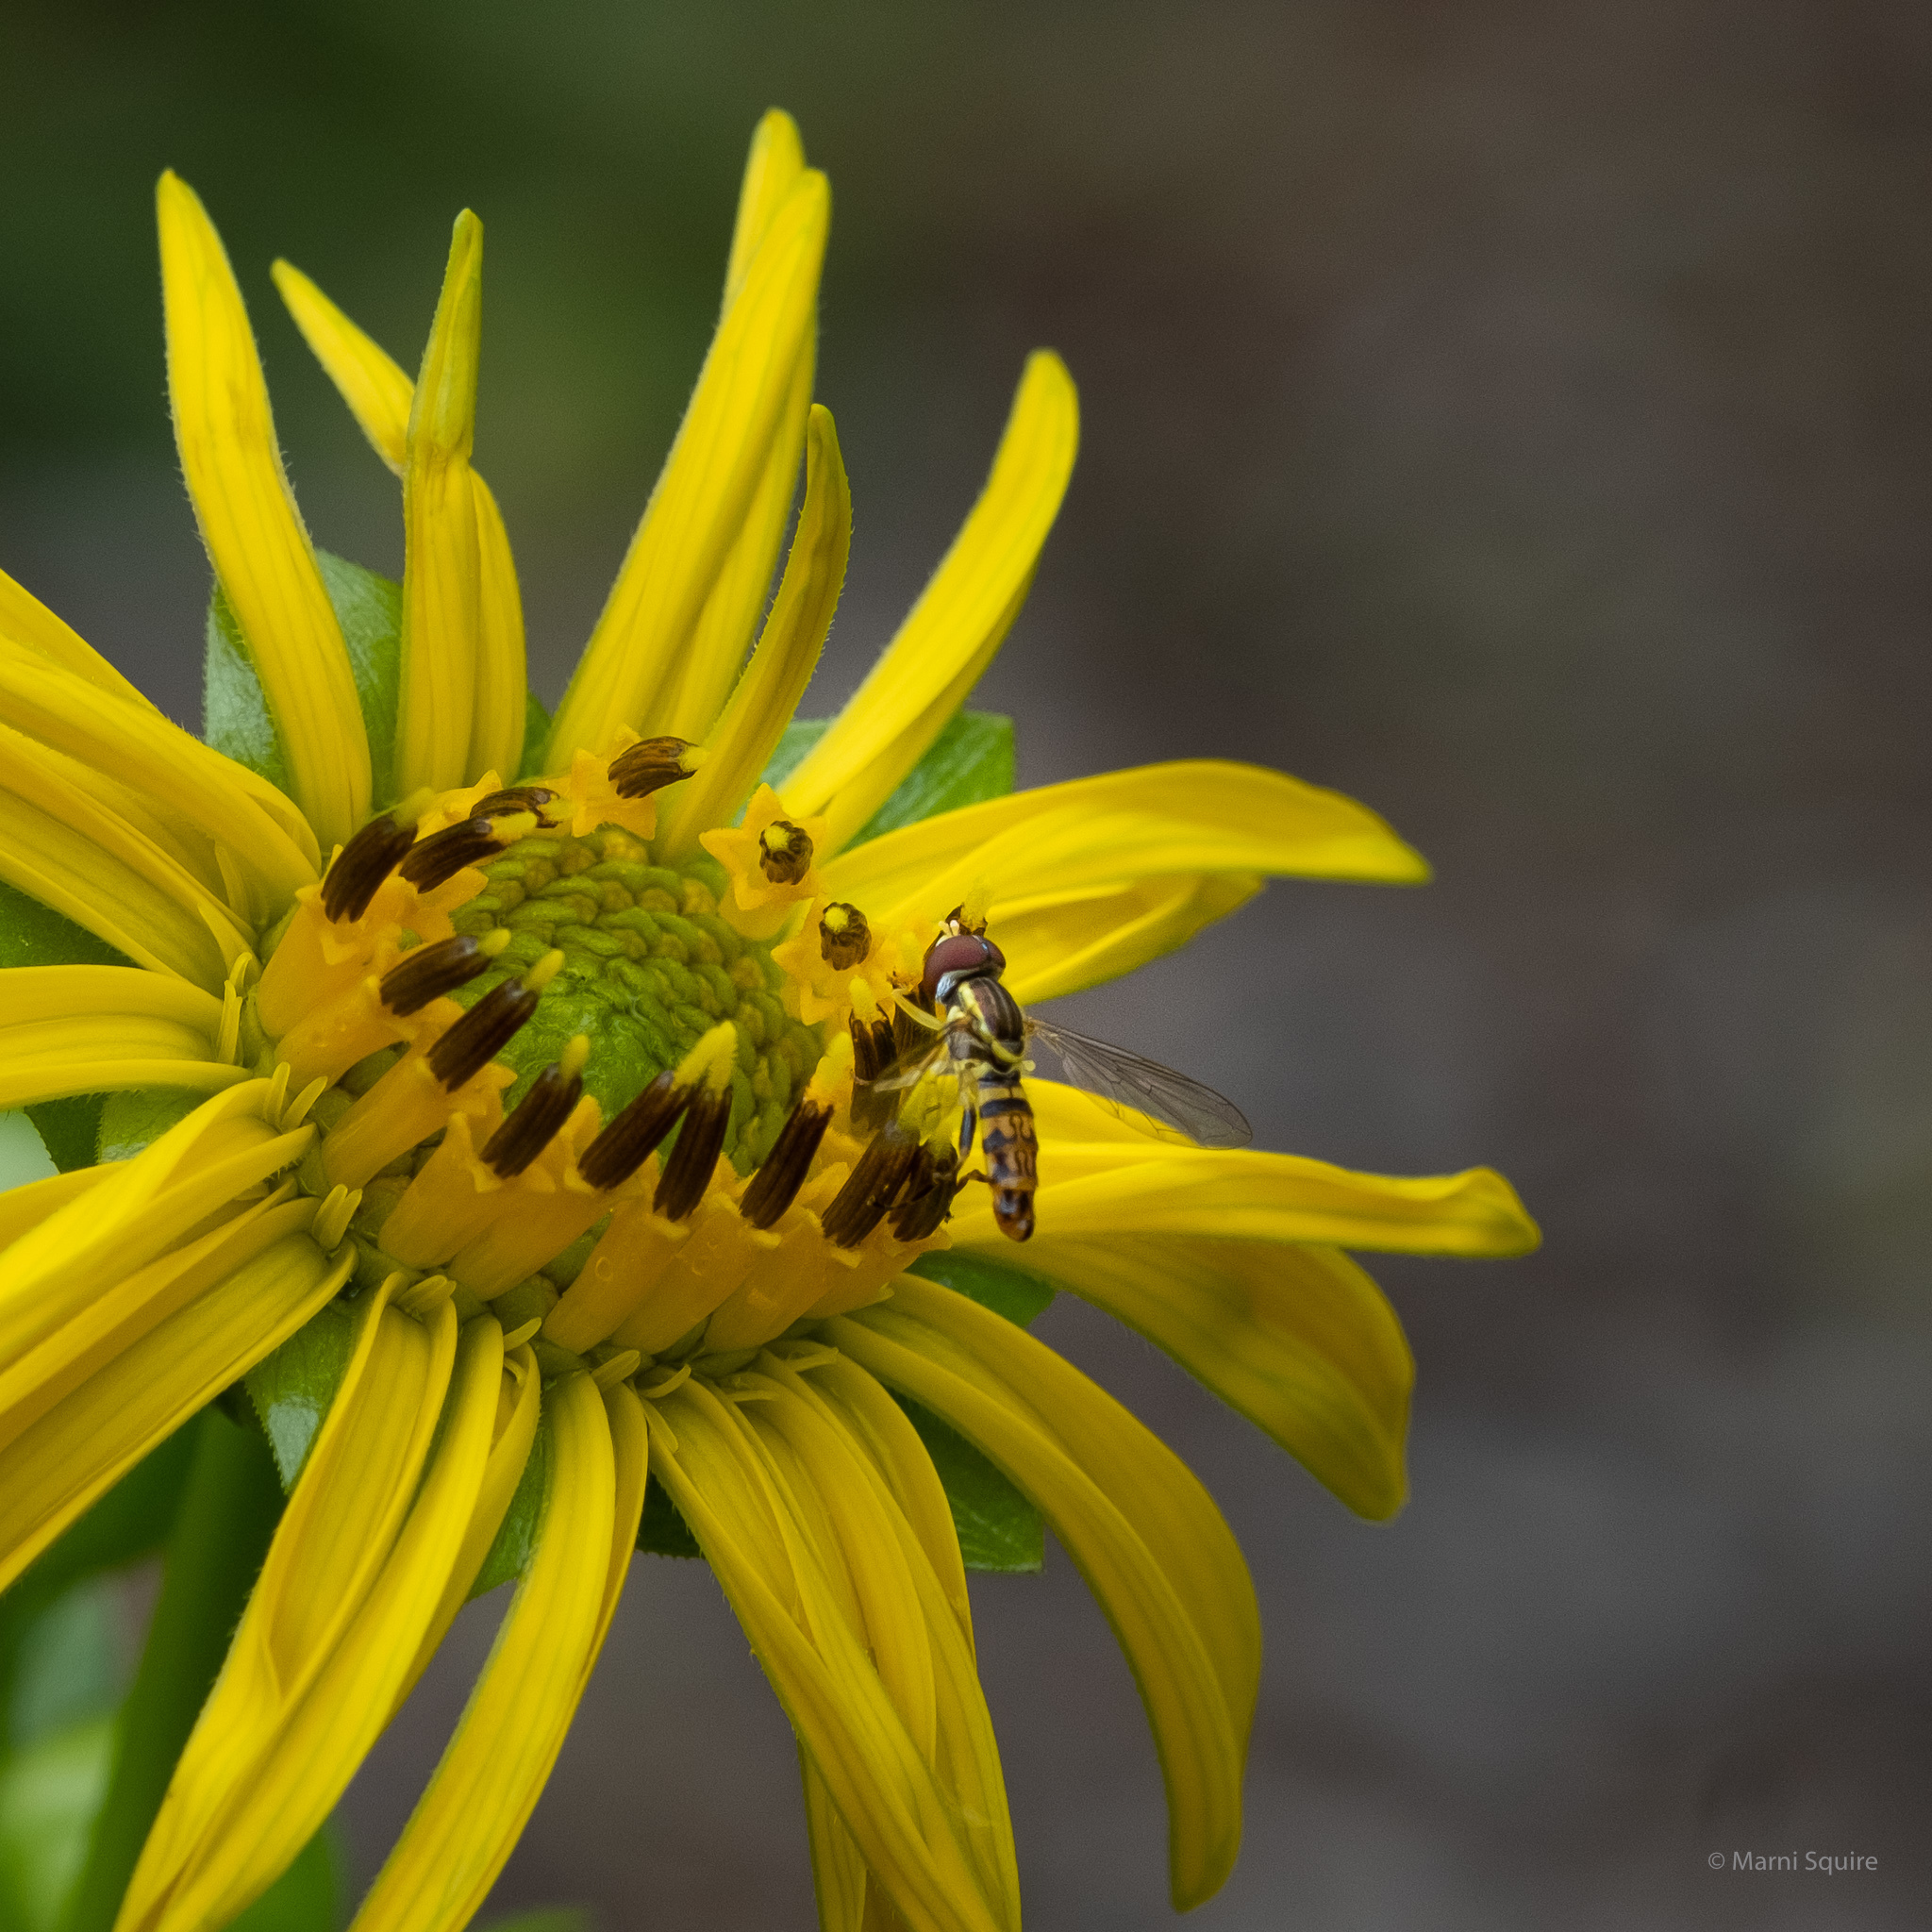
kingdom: Animalia
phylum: Arthropoda
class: Insecta
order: Diptera
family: Syrphidae
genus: Toxomerus
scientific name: Toxomerus geminatus
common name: Eastern calligrapher
